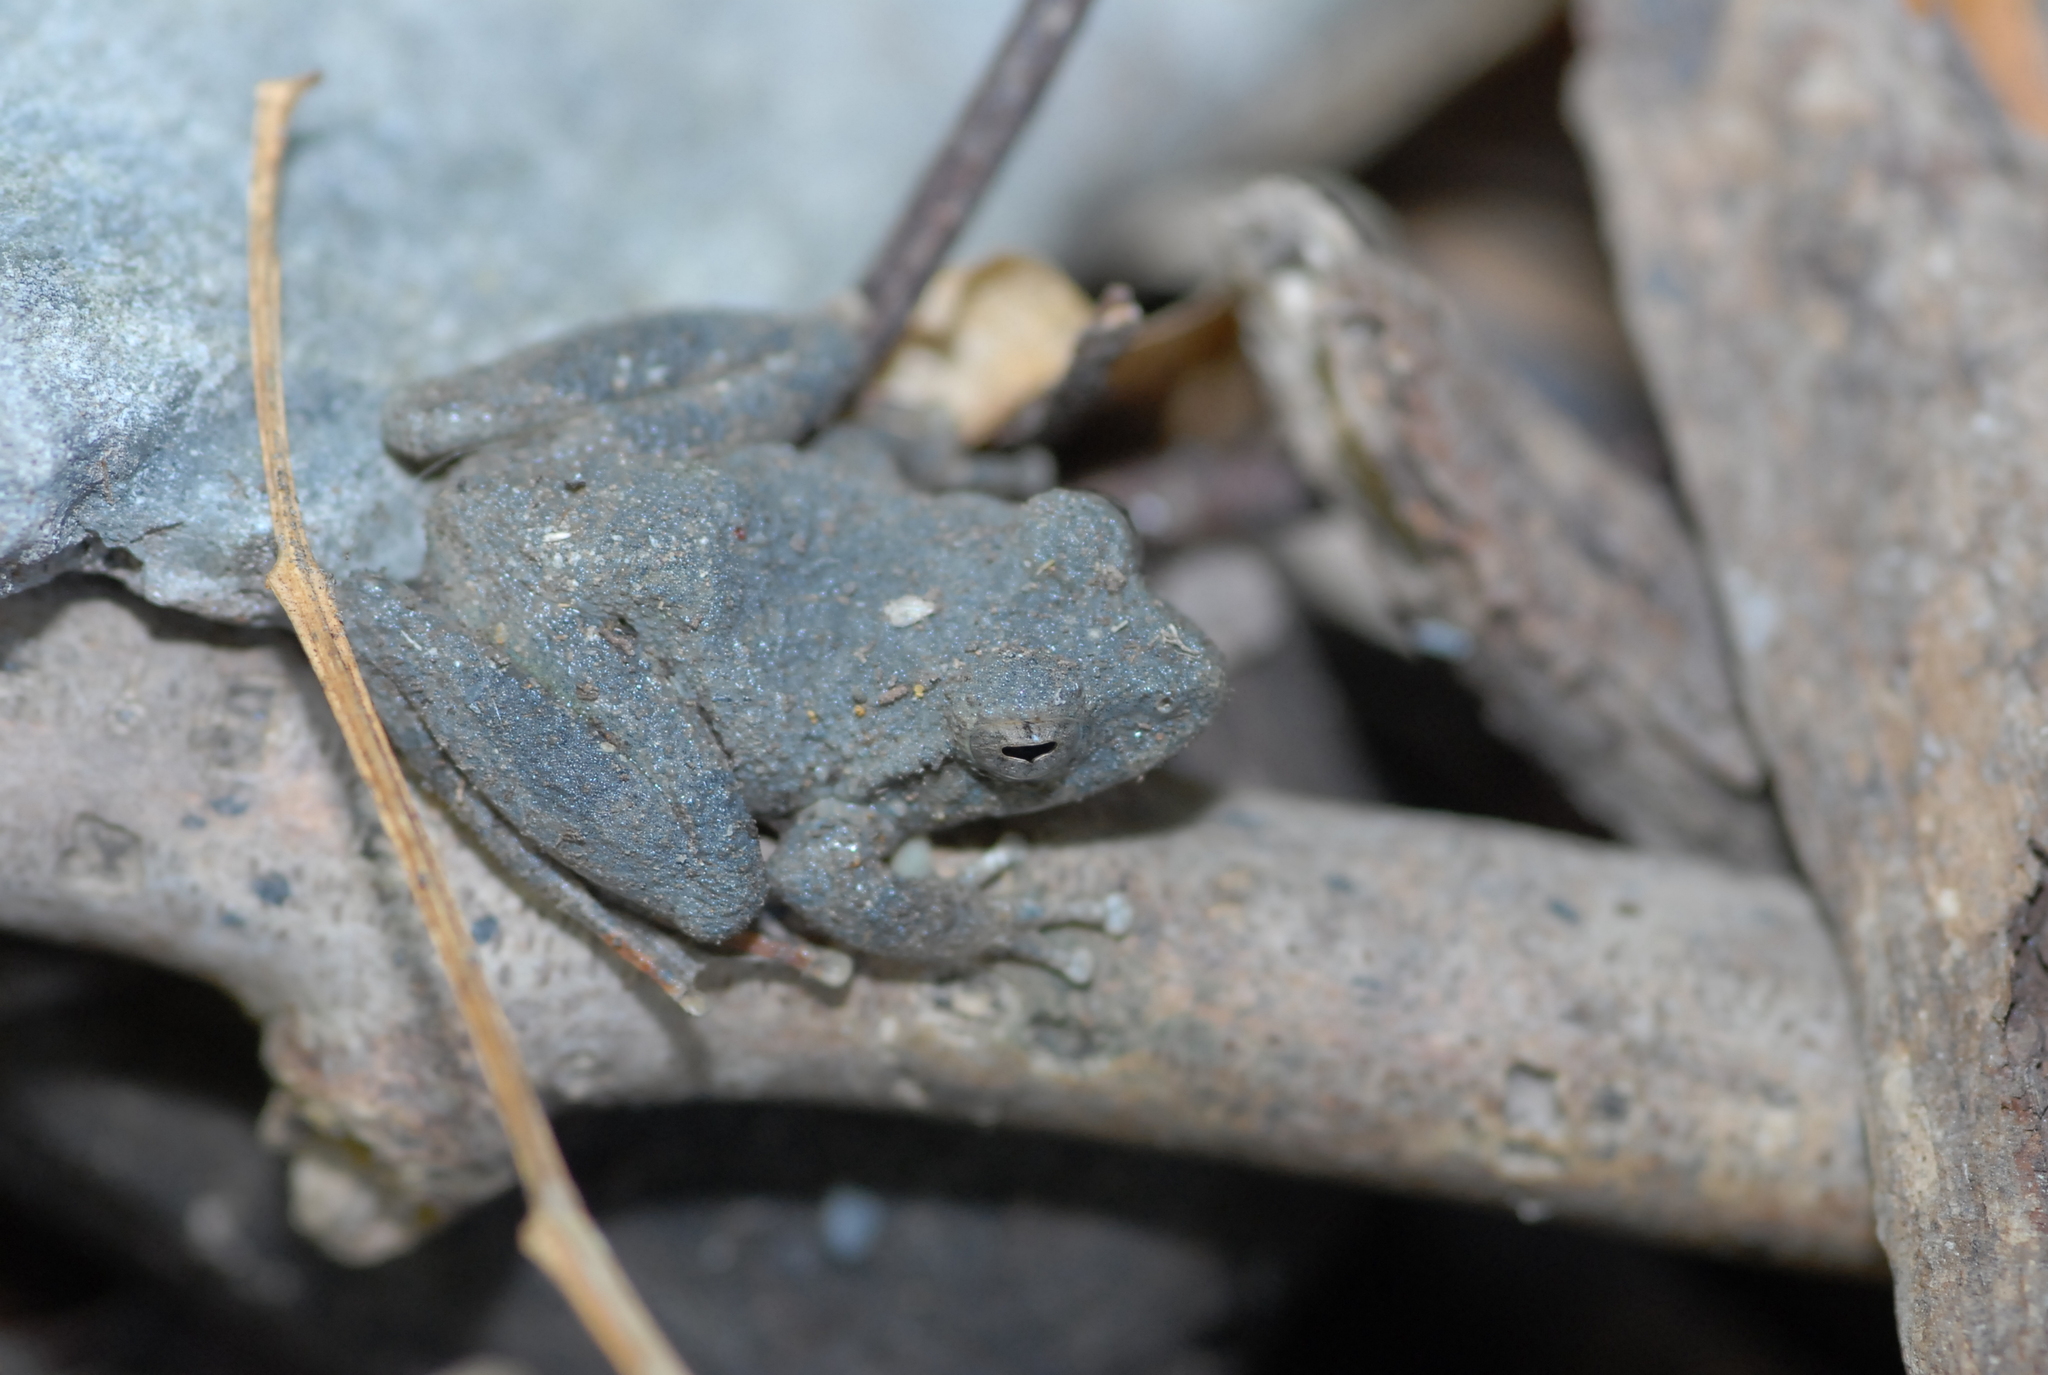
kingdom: Animalia
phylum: Chordata
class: Amphibia
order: Anura
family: Rhacophoridae
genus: Buergeria
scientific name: Buergeria otai
